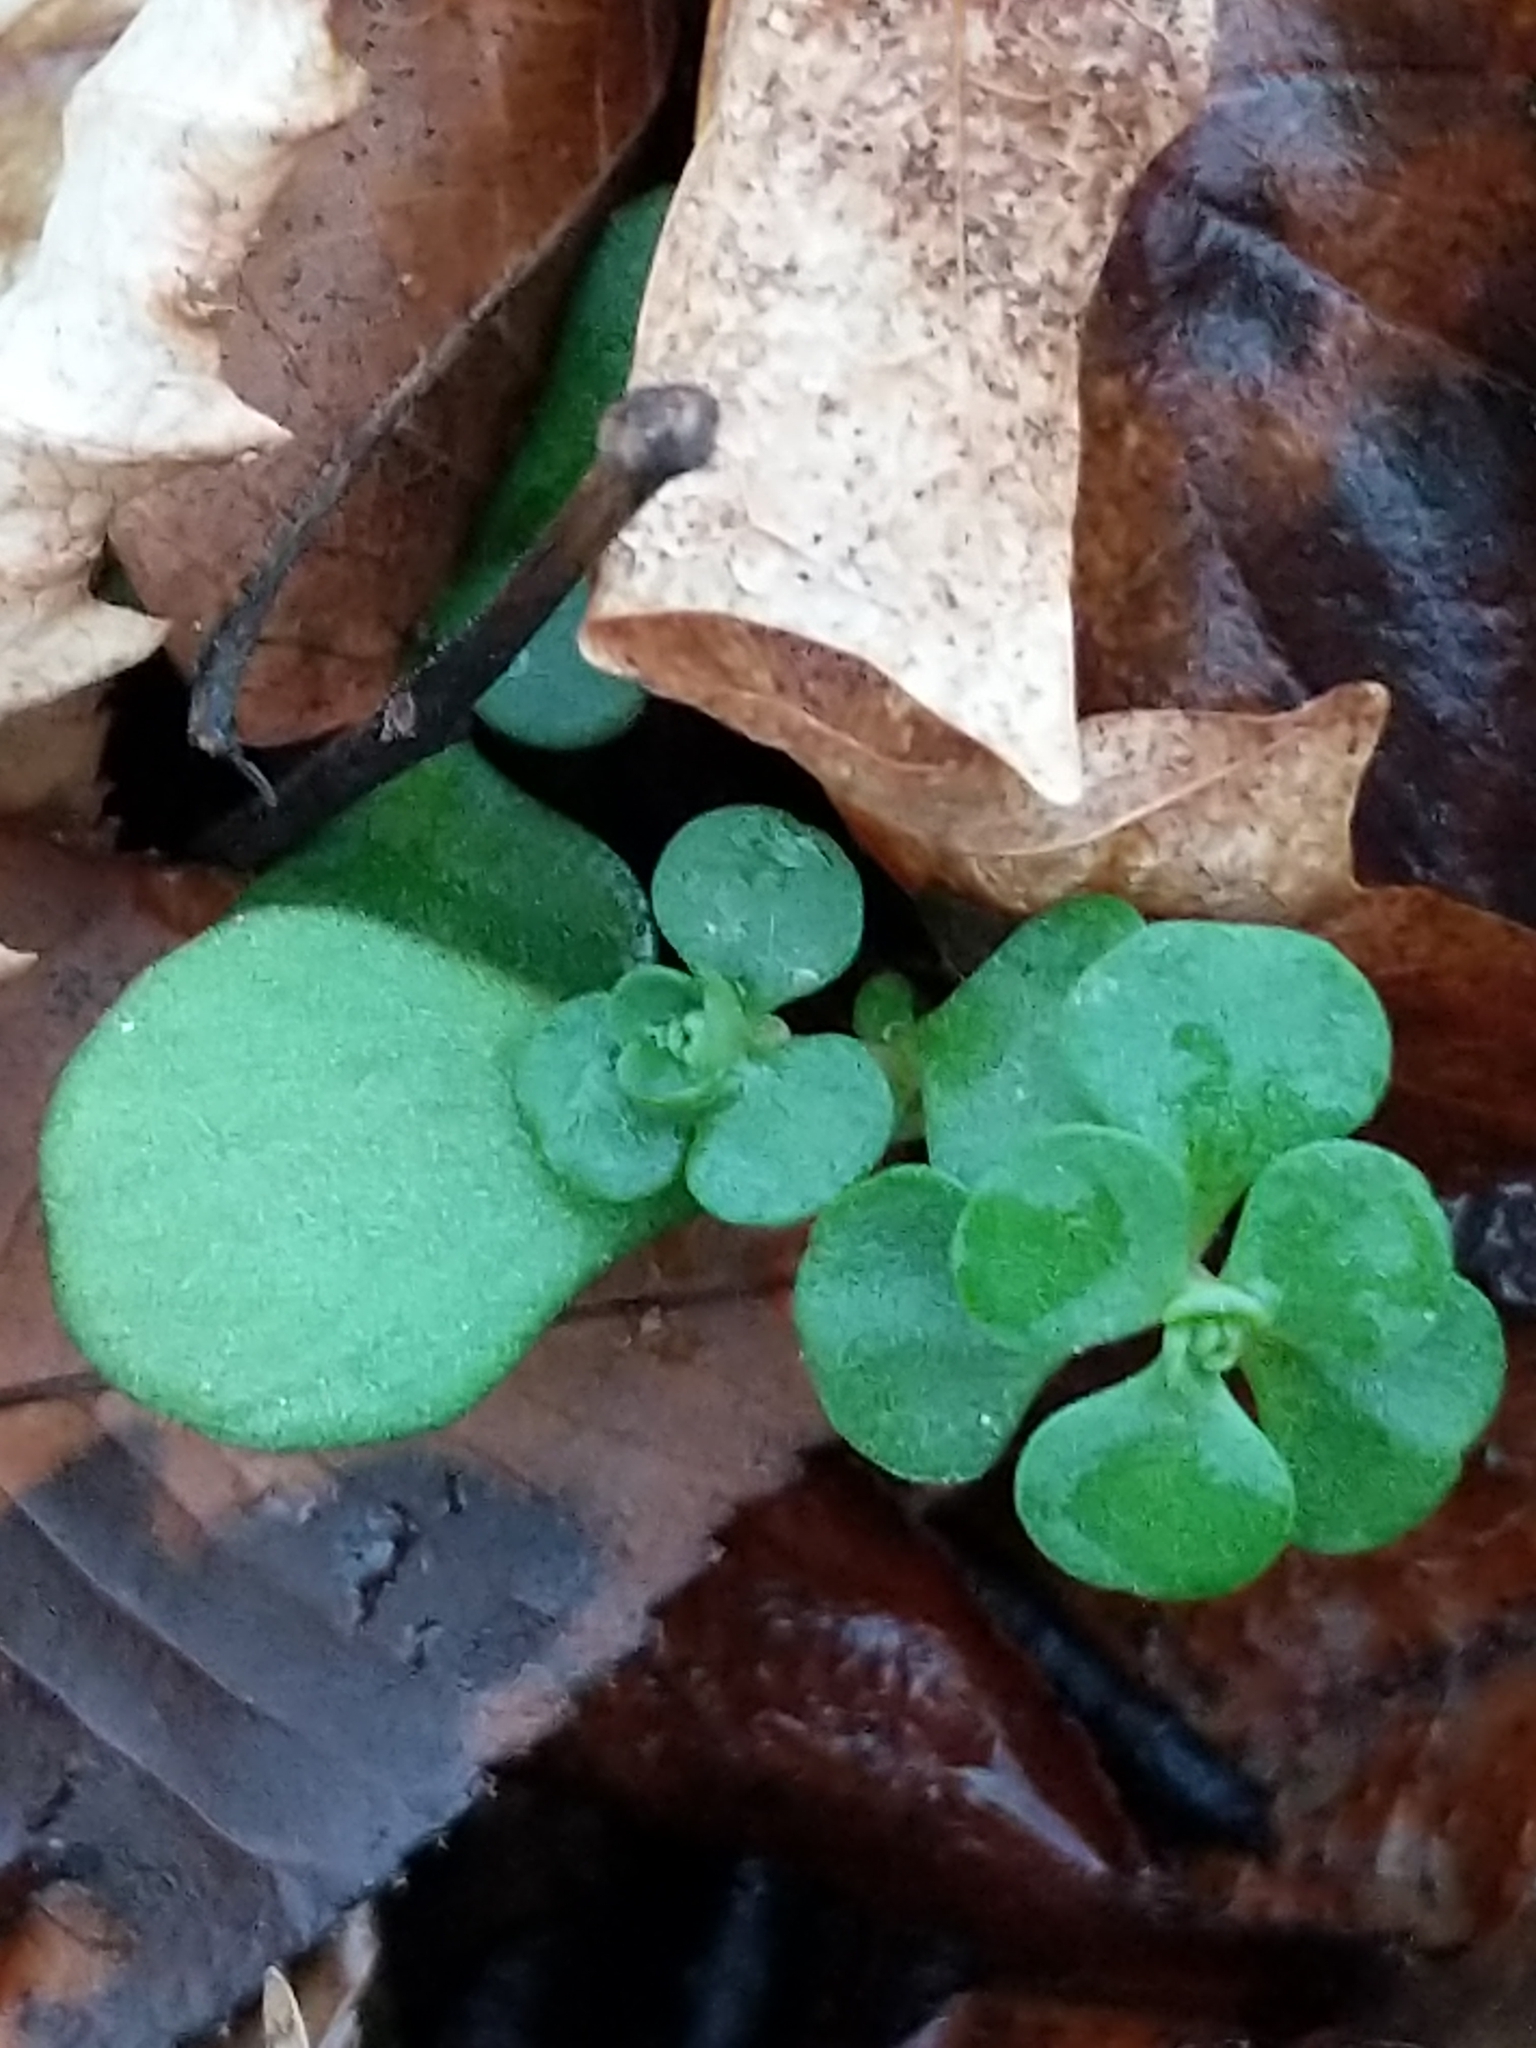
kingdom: Plantae
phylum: Tracheophyta
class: Magnoliopsida
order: Saxifragales
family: Crassulaceae
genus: Sedum
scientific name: Sedum ternatum
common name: Wild stonecrop
